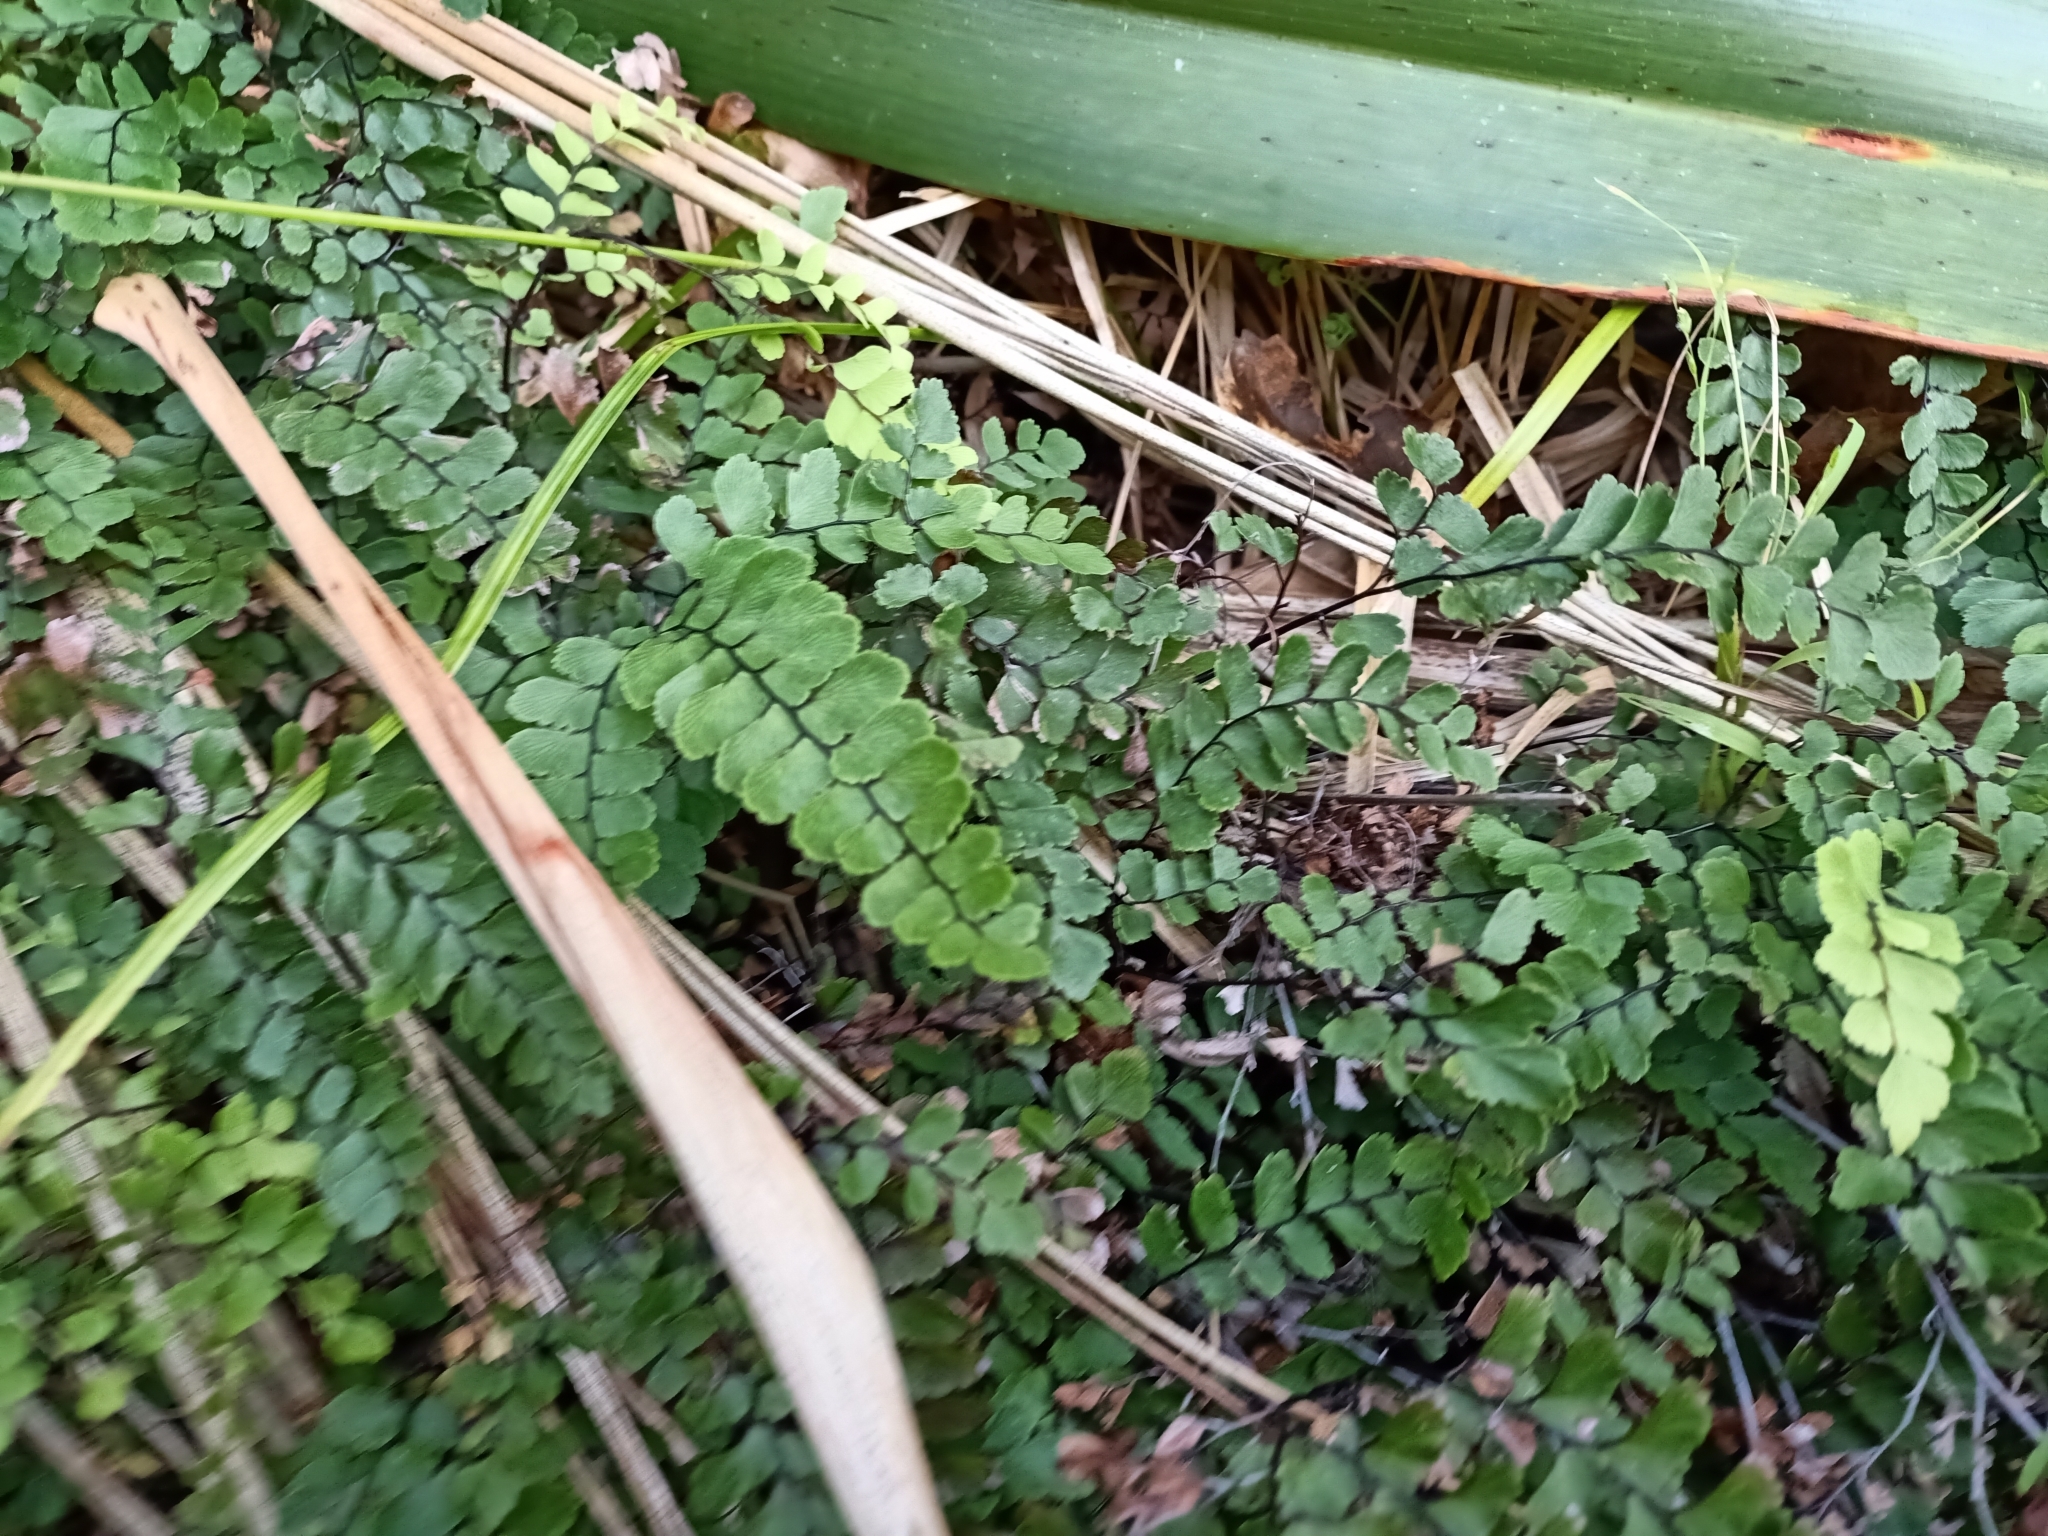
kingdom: Plantae
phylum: Tracheophyta
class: Polypodiopsida
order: Polypodiales
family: Pteridaceae
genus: Adiantum
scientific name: Adiantum cunninghamii
